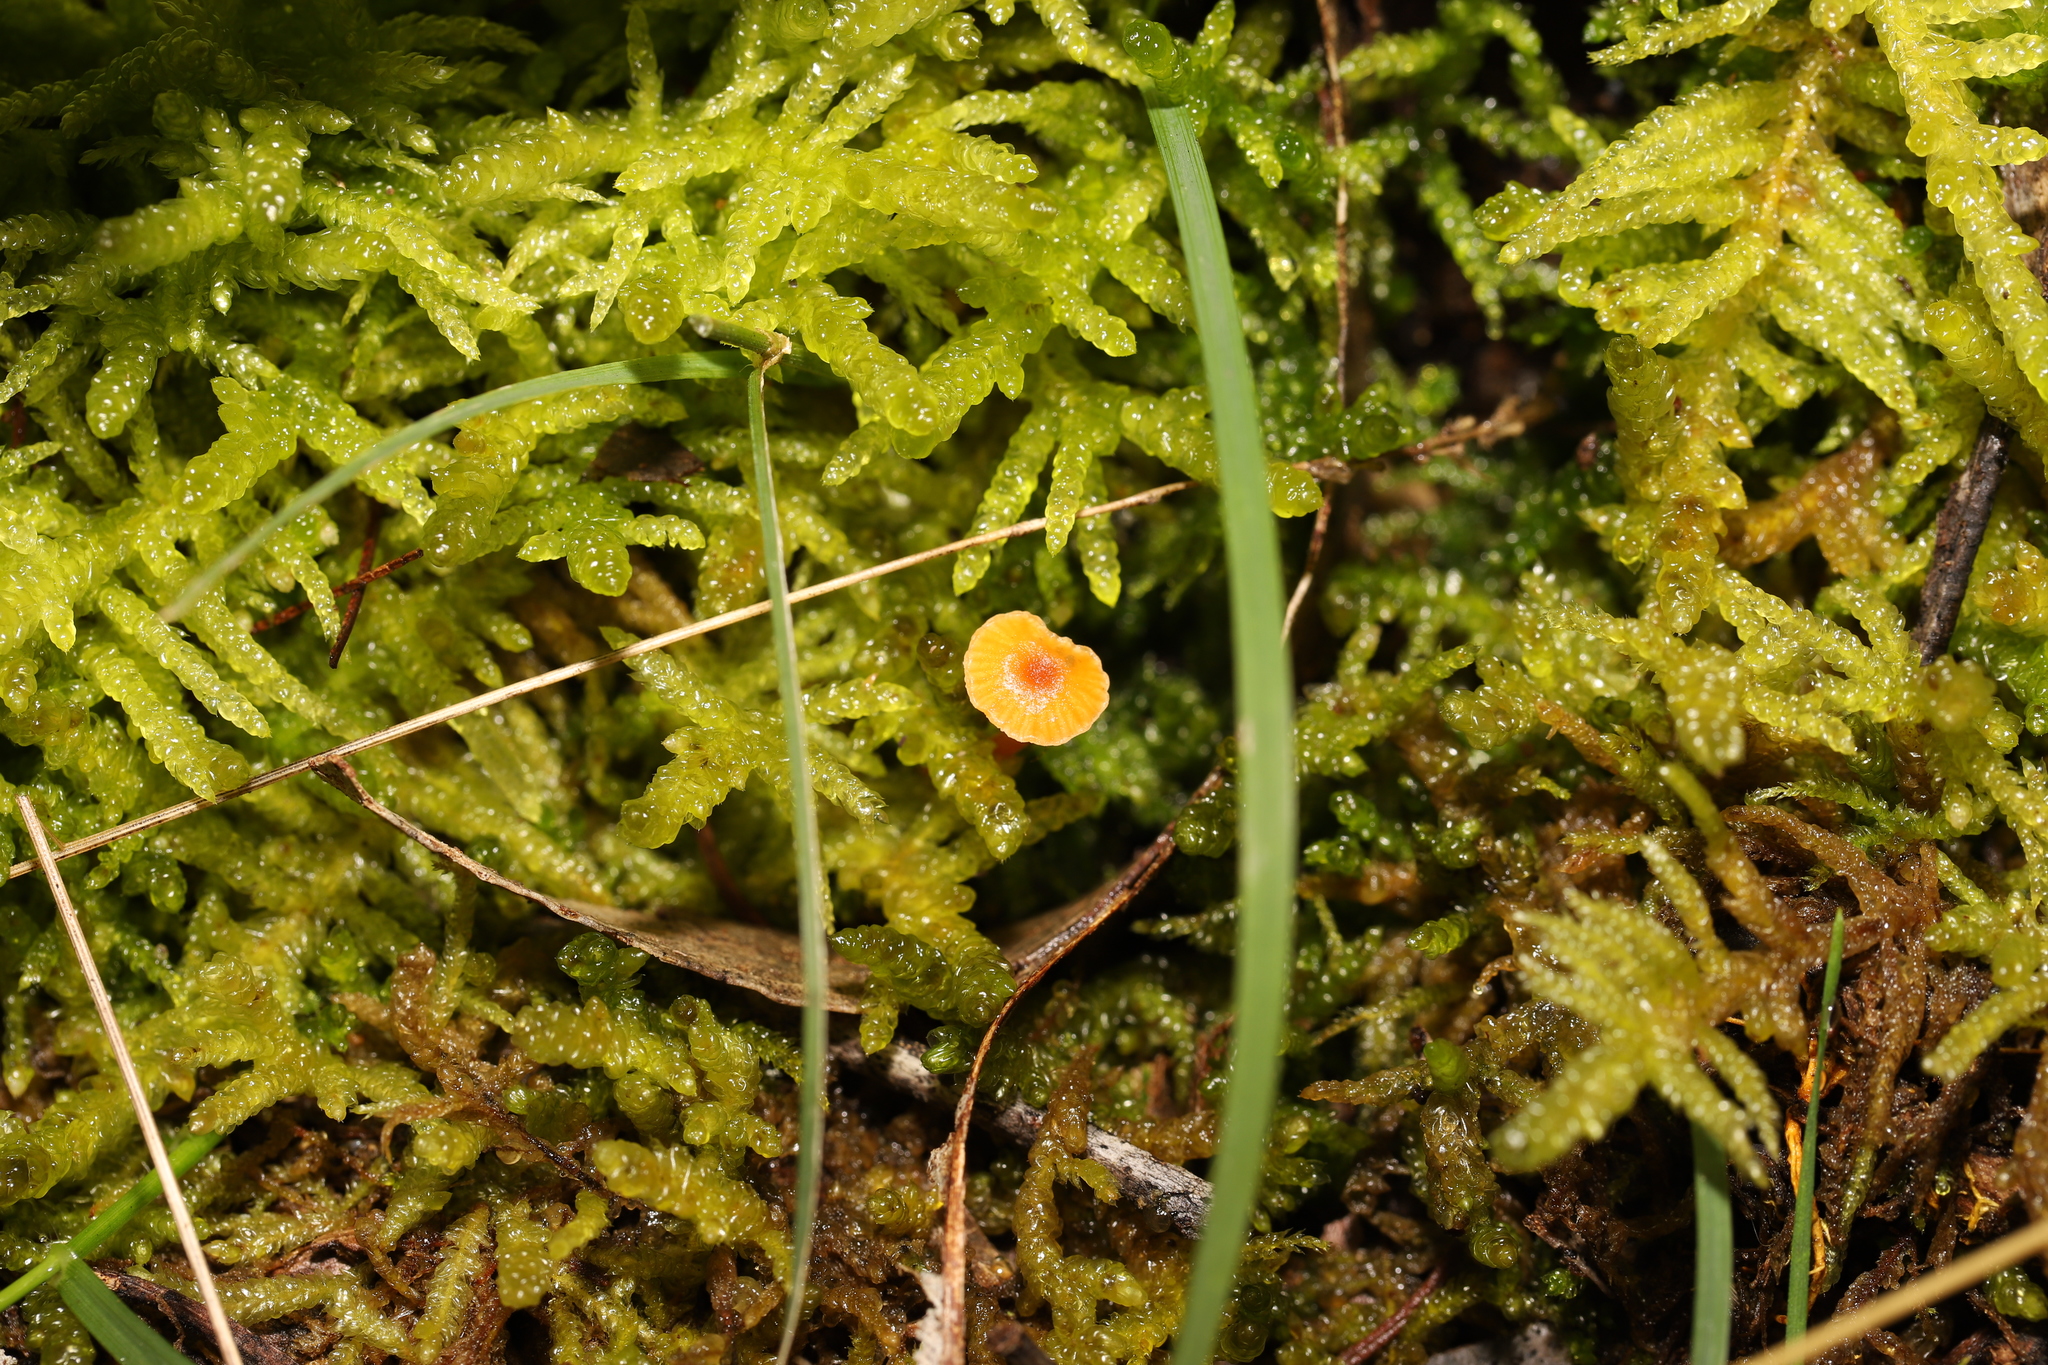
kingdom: Fungi
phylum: Basidiomycota
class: Agaricomycetes
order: Hymenochaetales
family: Rickenellaceae
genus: Rickenella
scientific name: Rickenella fibula
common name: Orange mosscap
